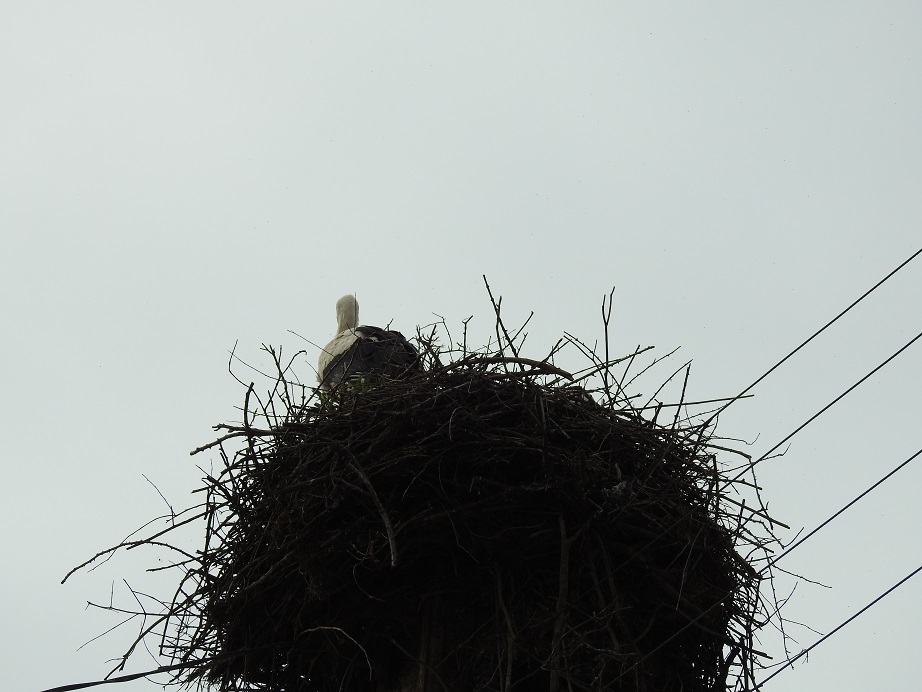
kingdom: Animalia
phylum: Chordata
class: Aves
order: Ciconiiformes
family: Ciconiidae
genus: Ciconia
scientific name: Ciconia ciconia
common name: White stork
